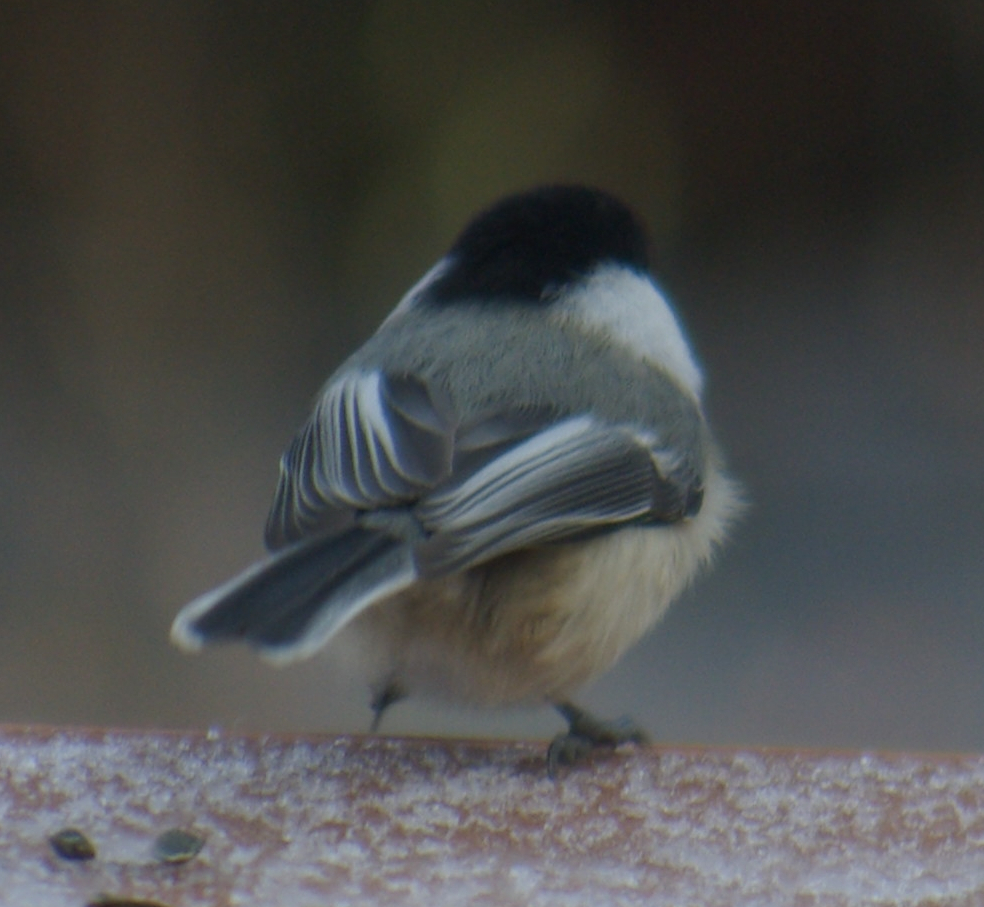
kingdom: Animalia
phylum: Chordata
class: Aves
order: Passeriformes
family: Paridae
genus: Poecile
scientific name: Poecile atricapillus
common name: Black-capped chickadee
